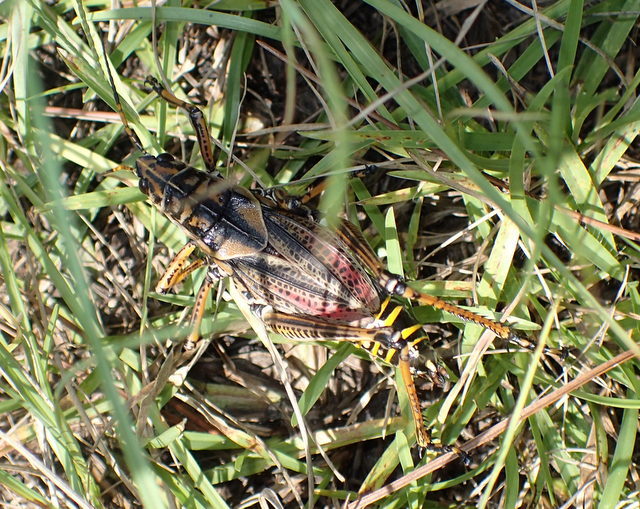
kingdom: Animalia
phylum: Arthropoda
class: Insecta
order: Orthoptera
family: Romaleidae
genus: Romalea
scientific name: Romalea microptera
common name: Eastern lubber grasshopper
